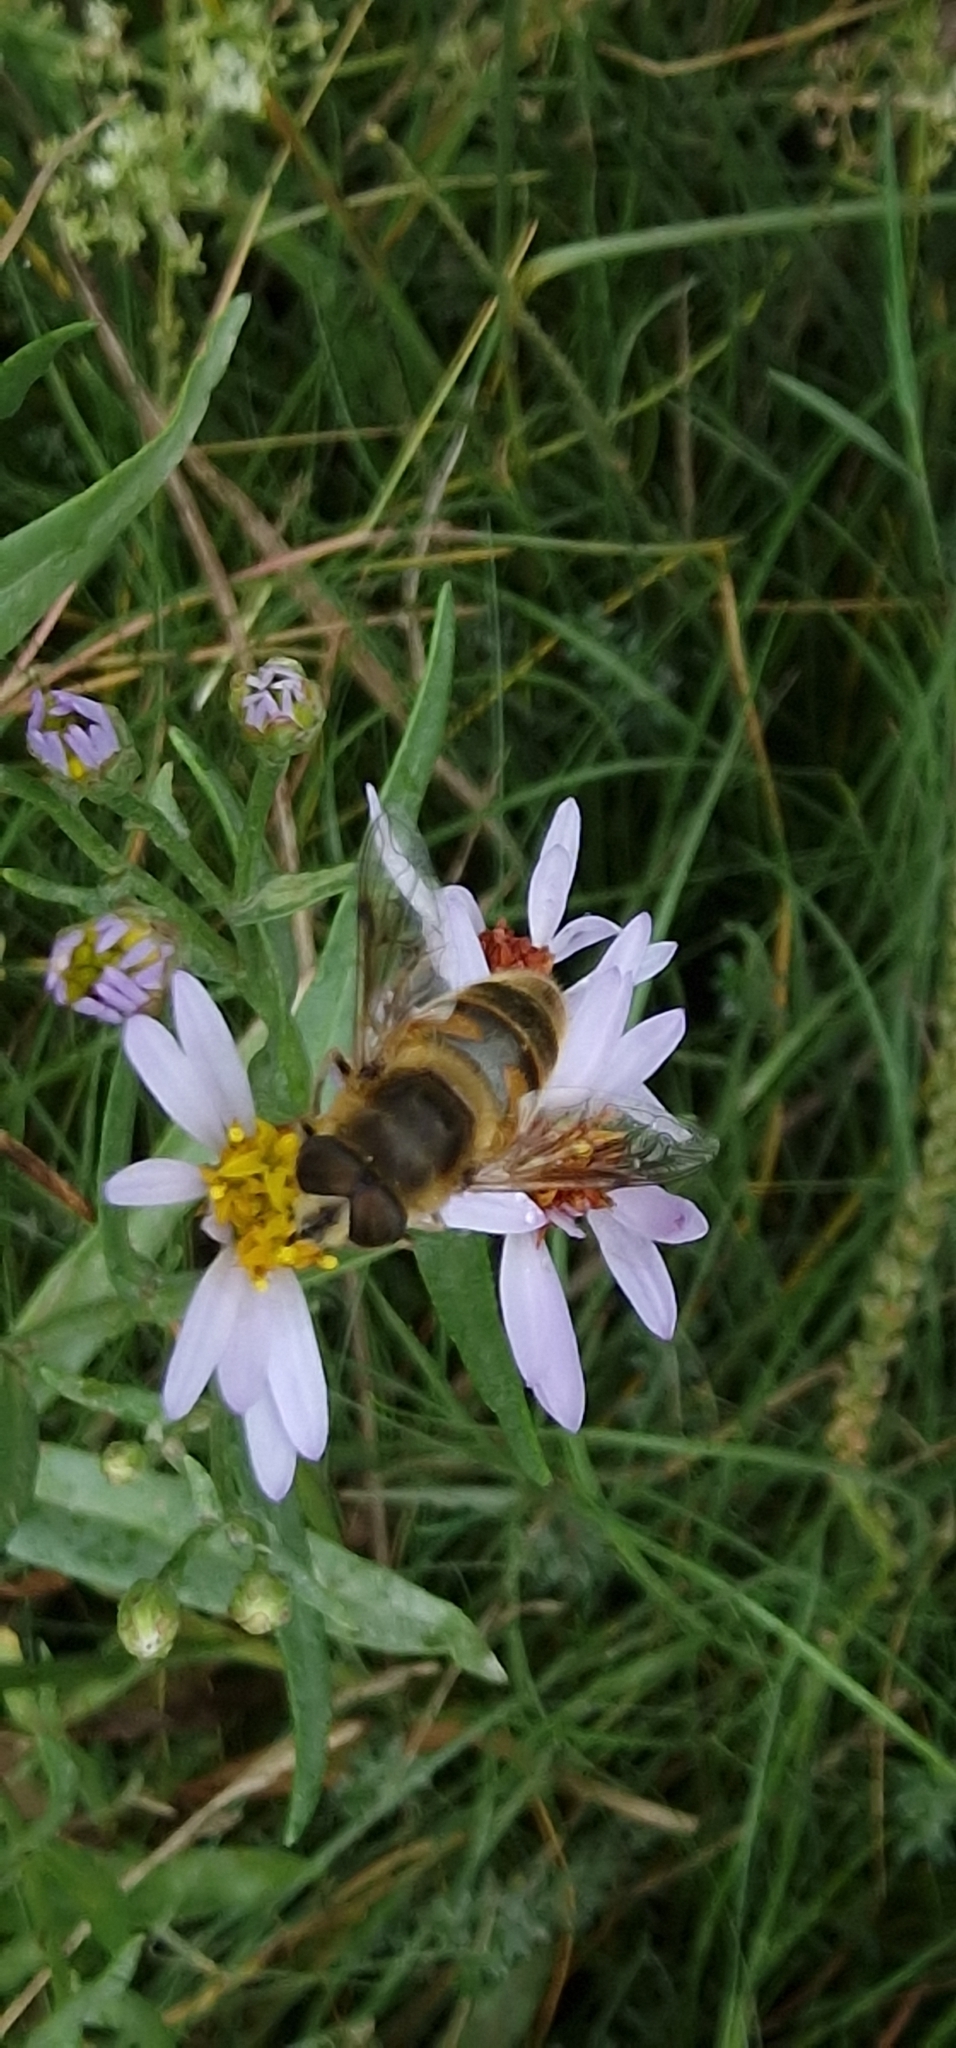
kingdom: Animalia
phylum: Arthropoda
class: Insecta
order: Diptera
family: Syrphidae
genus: Eristalis
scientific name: Eristalis tenax
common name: Drone fly
